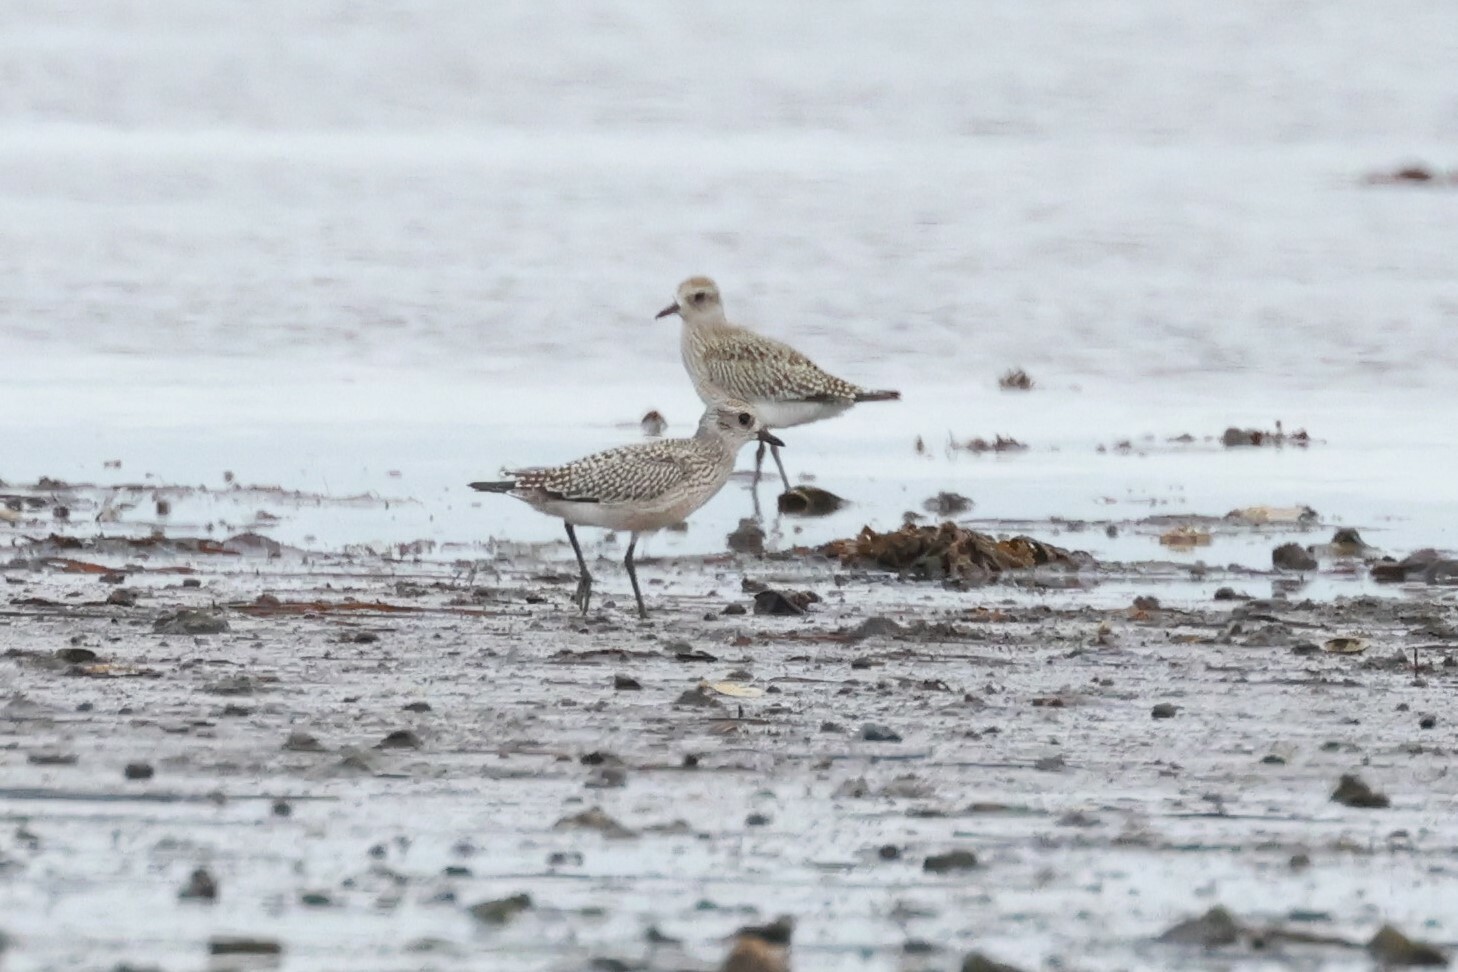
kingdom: Animalia
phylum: Chordata
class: Aves
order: Charadriiformes
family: Charadriidae
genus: Pluvialis
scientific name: Pluvialis squatarola
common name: Grey plover
